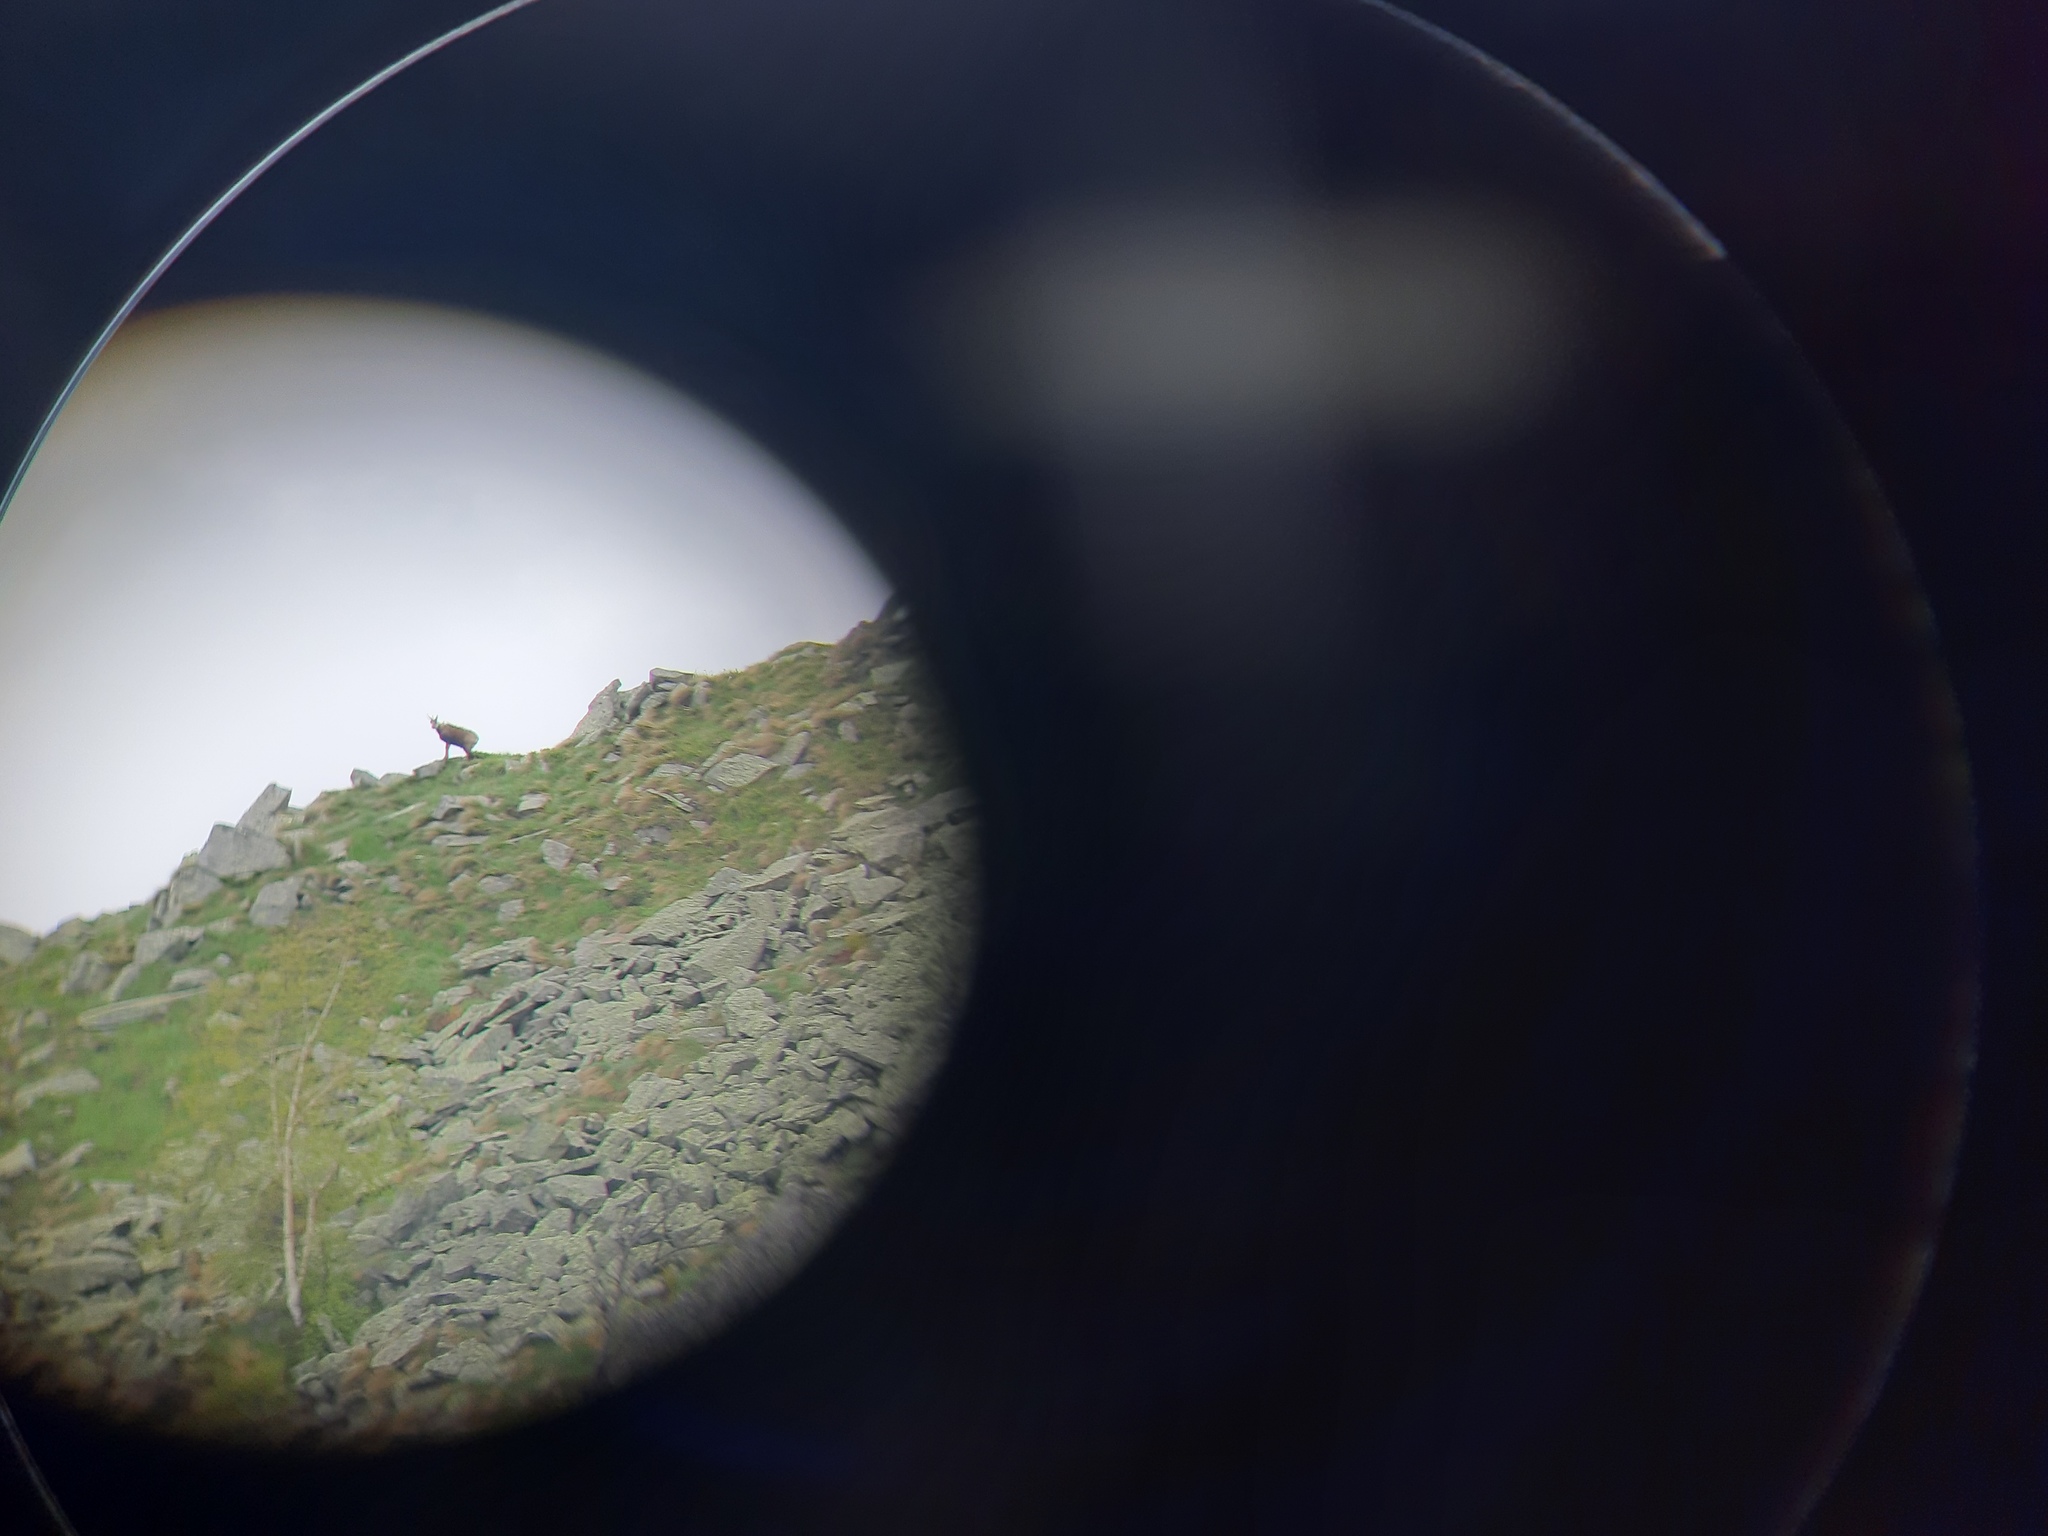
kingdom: Animalia
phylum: Chordata
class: Mammalia
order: Artiodactyla
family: Bovidae
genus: Rupicapra
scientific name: Rupicapra rupicapra
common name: Chamois
